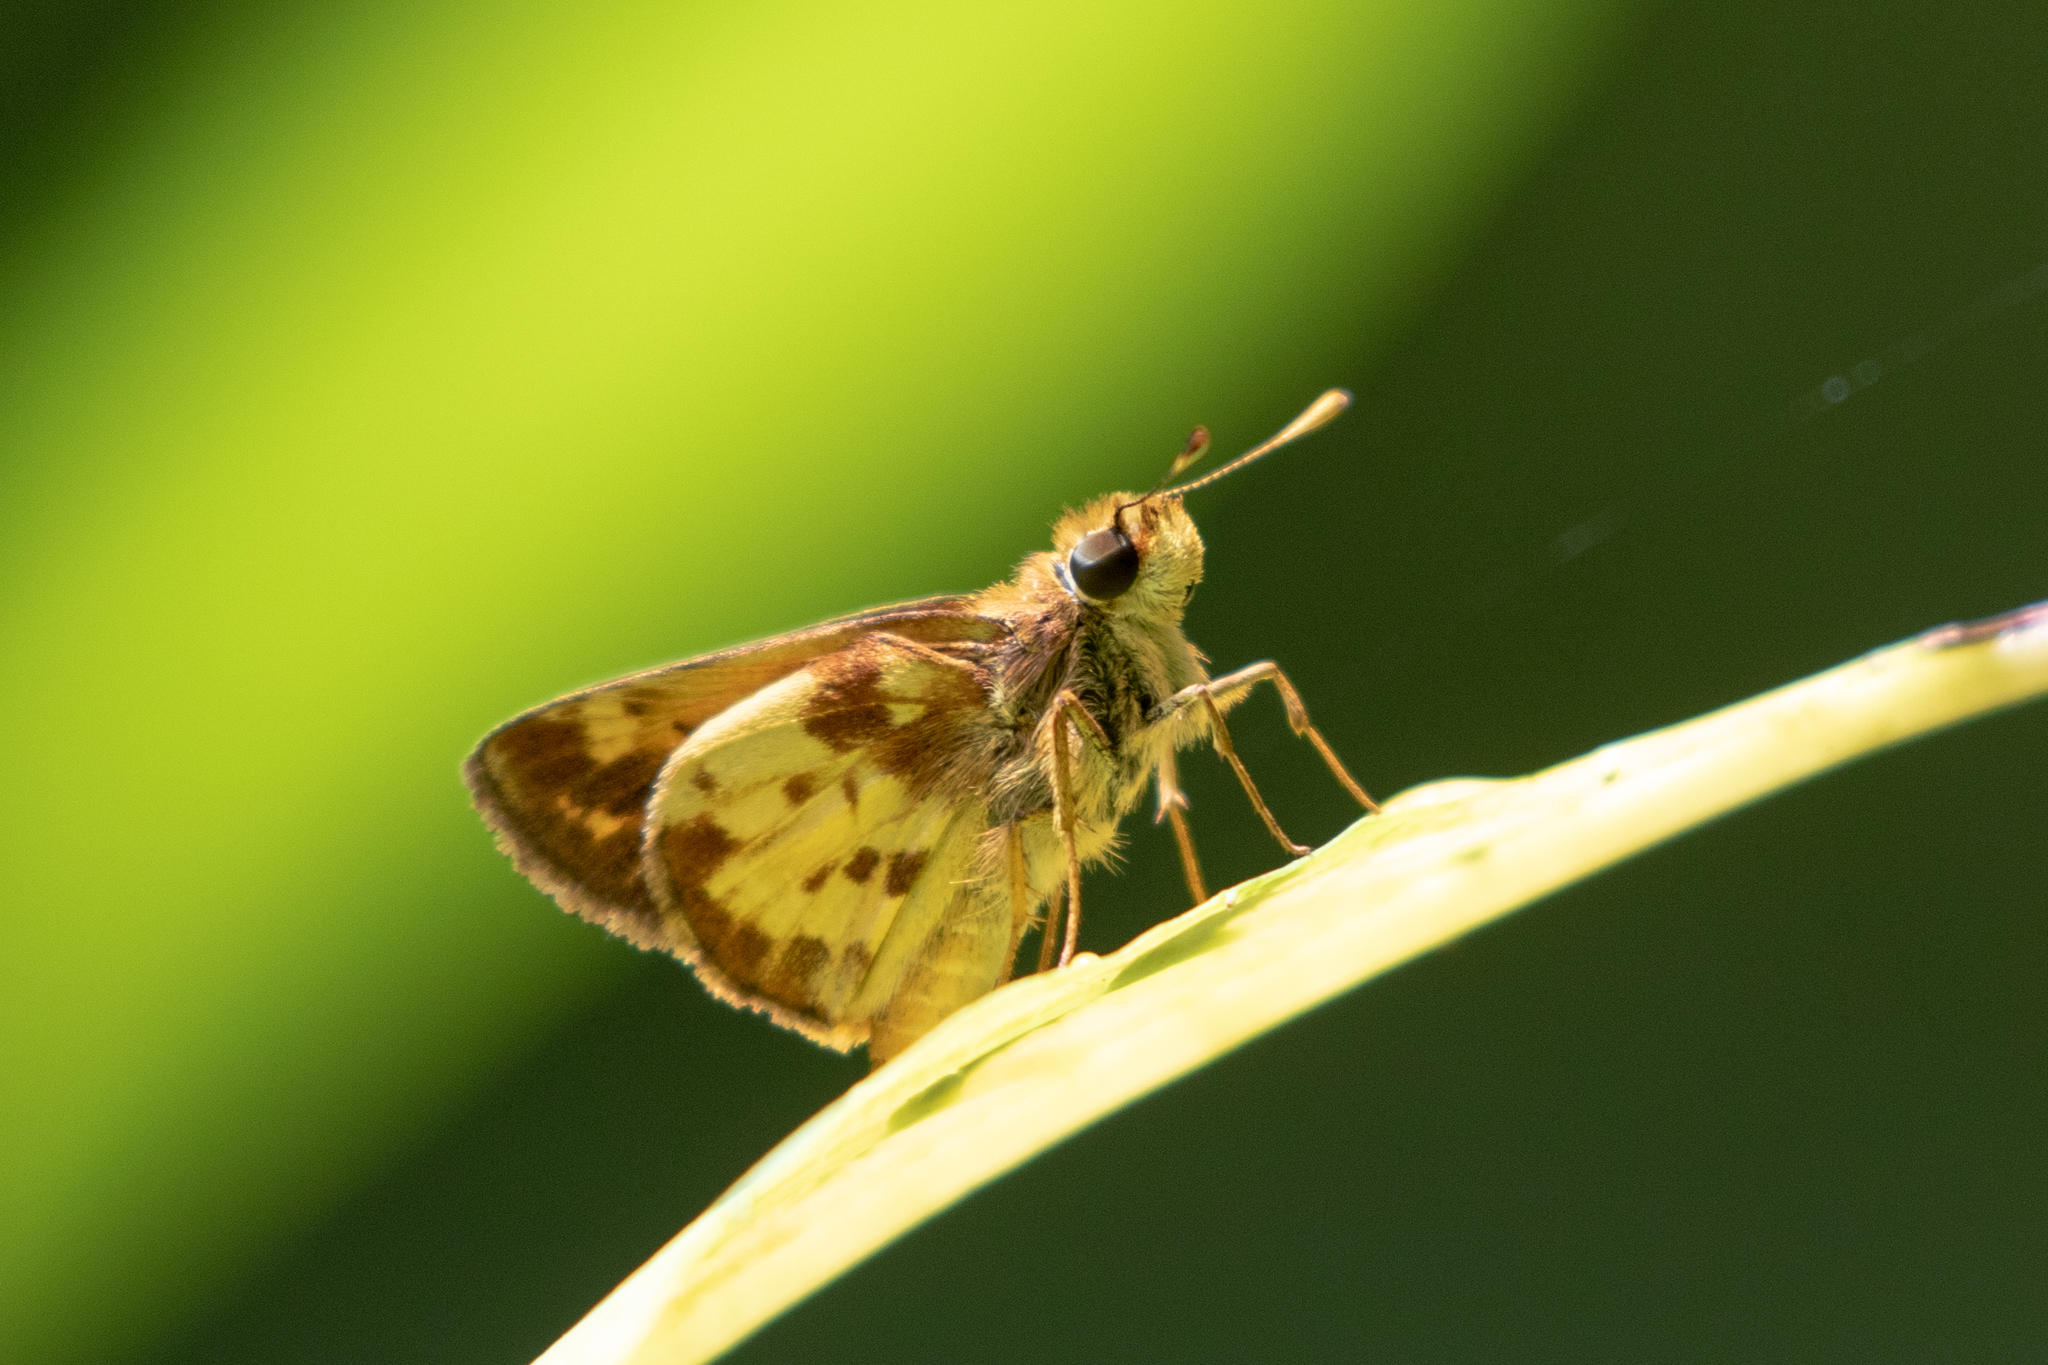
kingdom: Animalia
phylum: Arthropoda
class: Insecta
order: Lepidoptera
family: Hesperiidae
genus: Lon
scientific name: Lon zabulon
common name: Zabulon skipper
